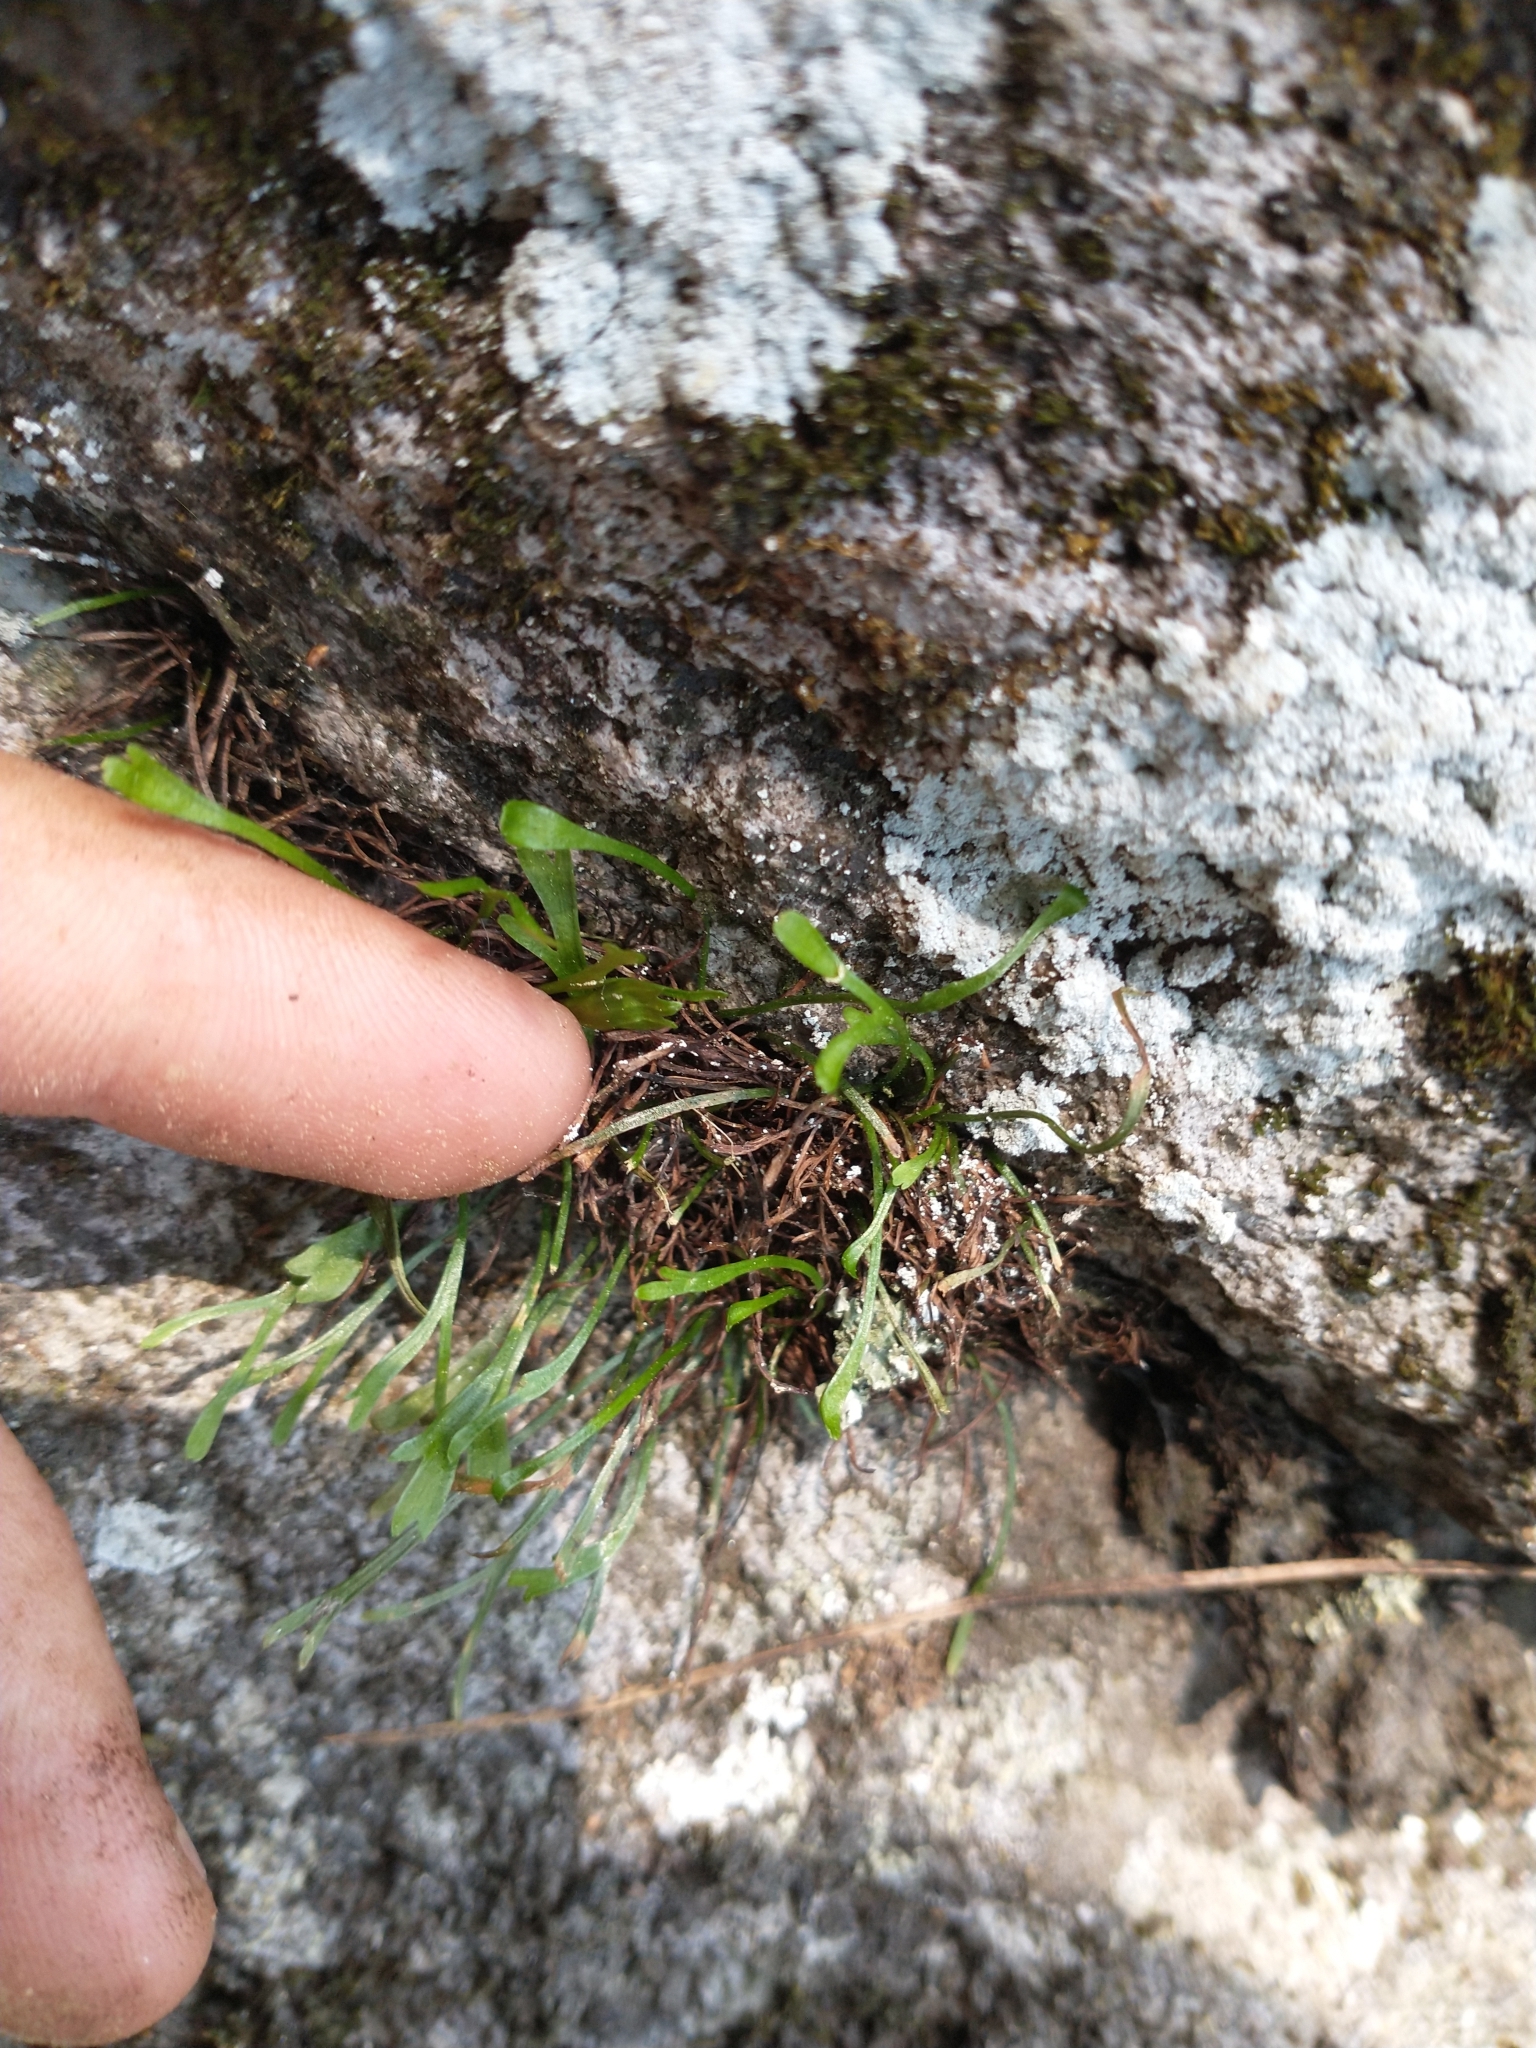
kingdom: Plantae
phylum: Tracheophyta
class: Polypodiopsida
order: Polypodiales
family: Aspleniaceae
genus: Asplenium
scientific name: Asplenium septentrionale
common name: Forked spleenwort
